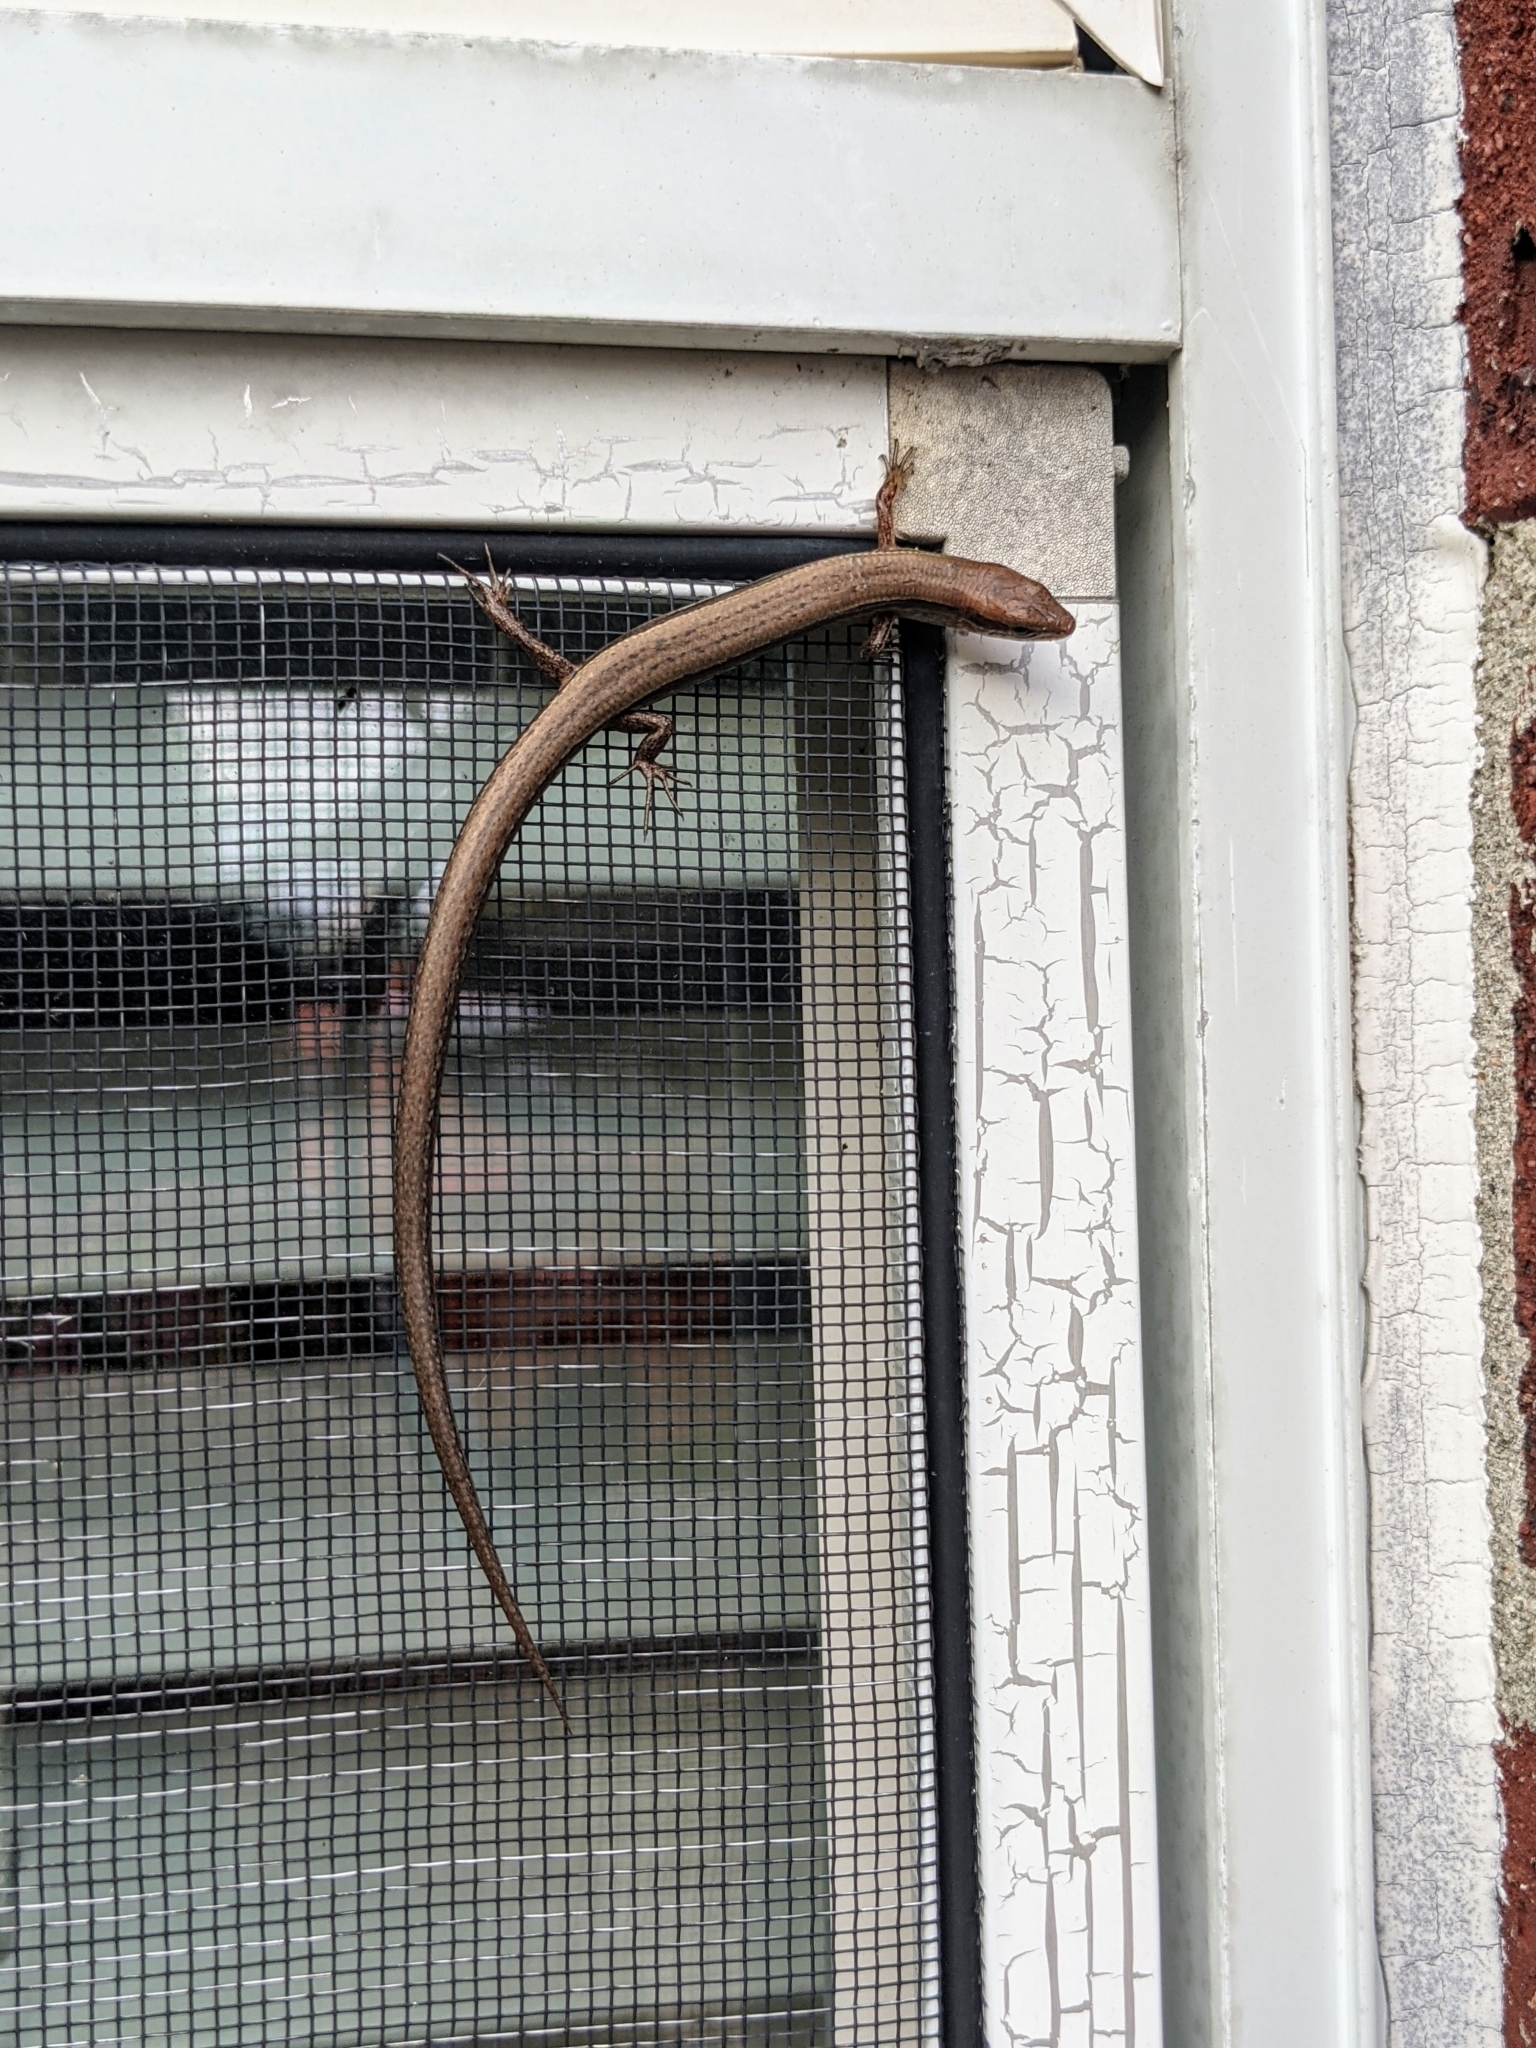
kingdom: Animalia
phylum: Chordata
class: Squamata
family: Scincidae
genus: Scincella
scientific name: Scincella lateralis
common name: Ground skink
